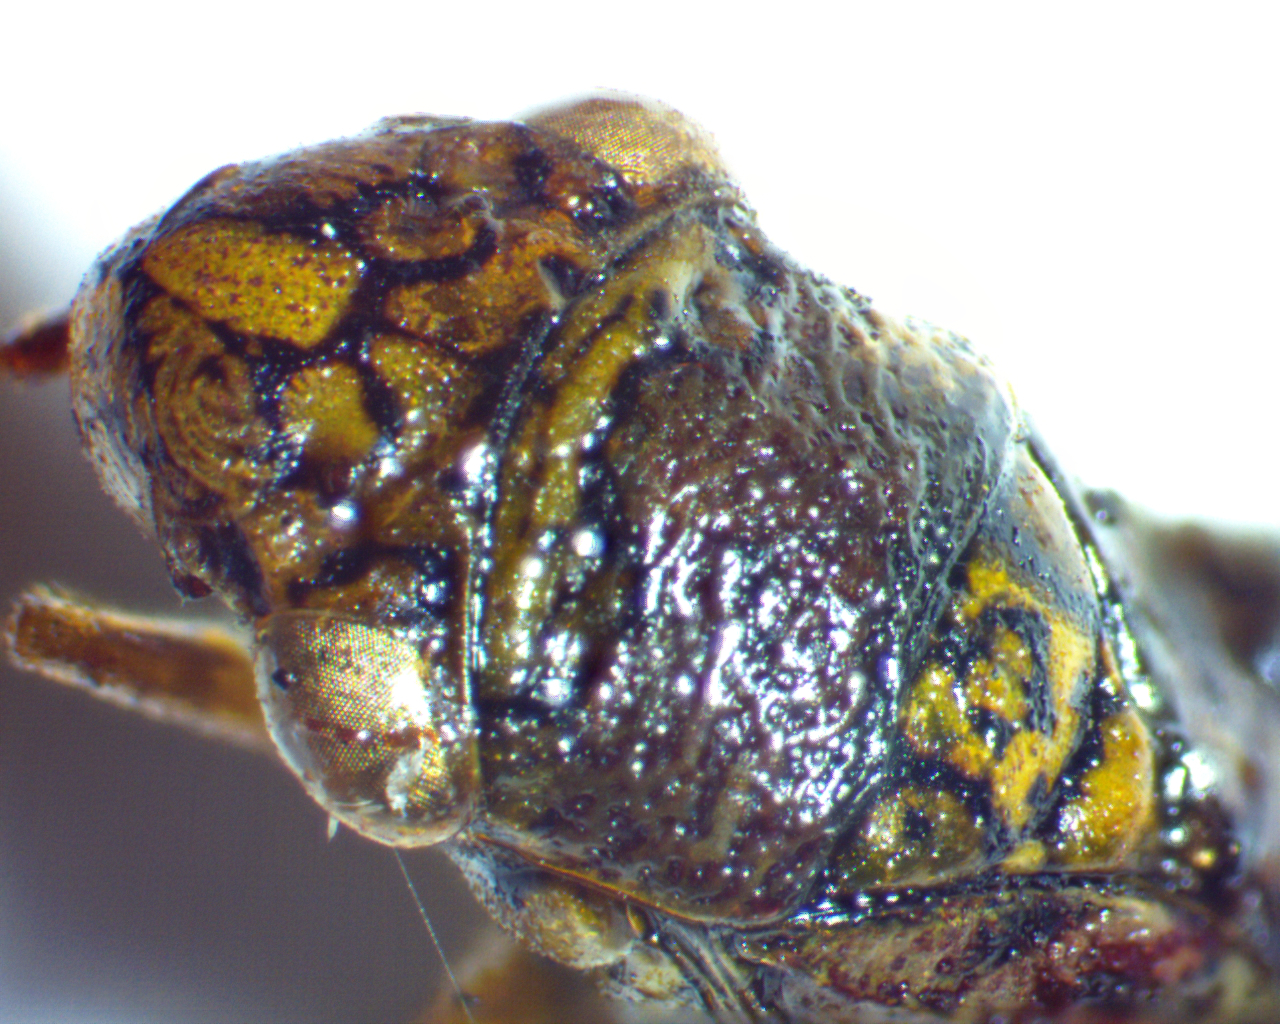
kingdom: Animalia
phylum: Arthropoda
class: Insecta
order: Hemiptera
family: Cicadellidae
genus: Oncometopia
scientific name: Oncometopia orbona
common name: Broad-headed sharpshooter
